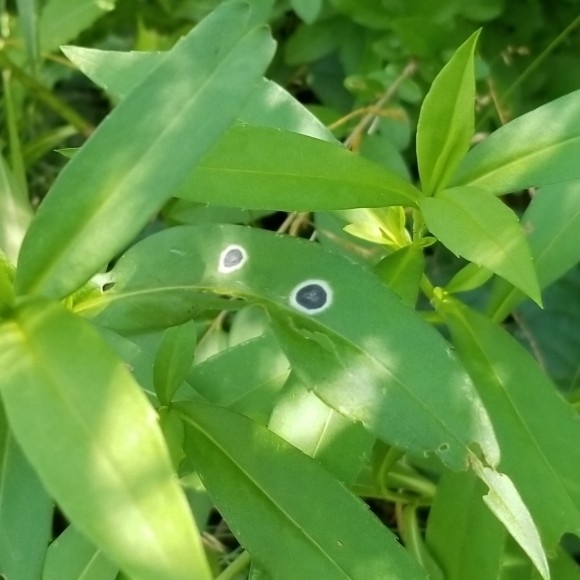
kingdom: Animalia
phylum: Arthropoda
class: Insecta
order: Diptera
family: Cecidomyiidae
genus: Asteromyia
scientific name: Asteromyia laeviana
